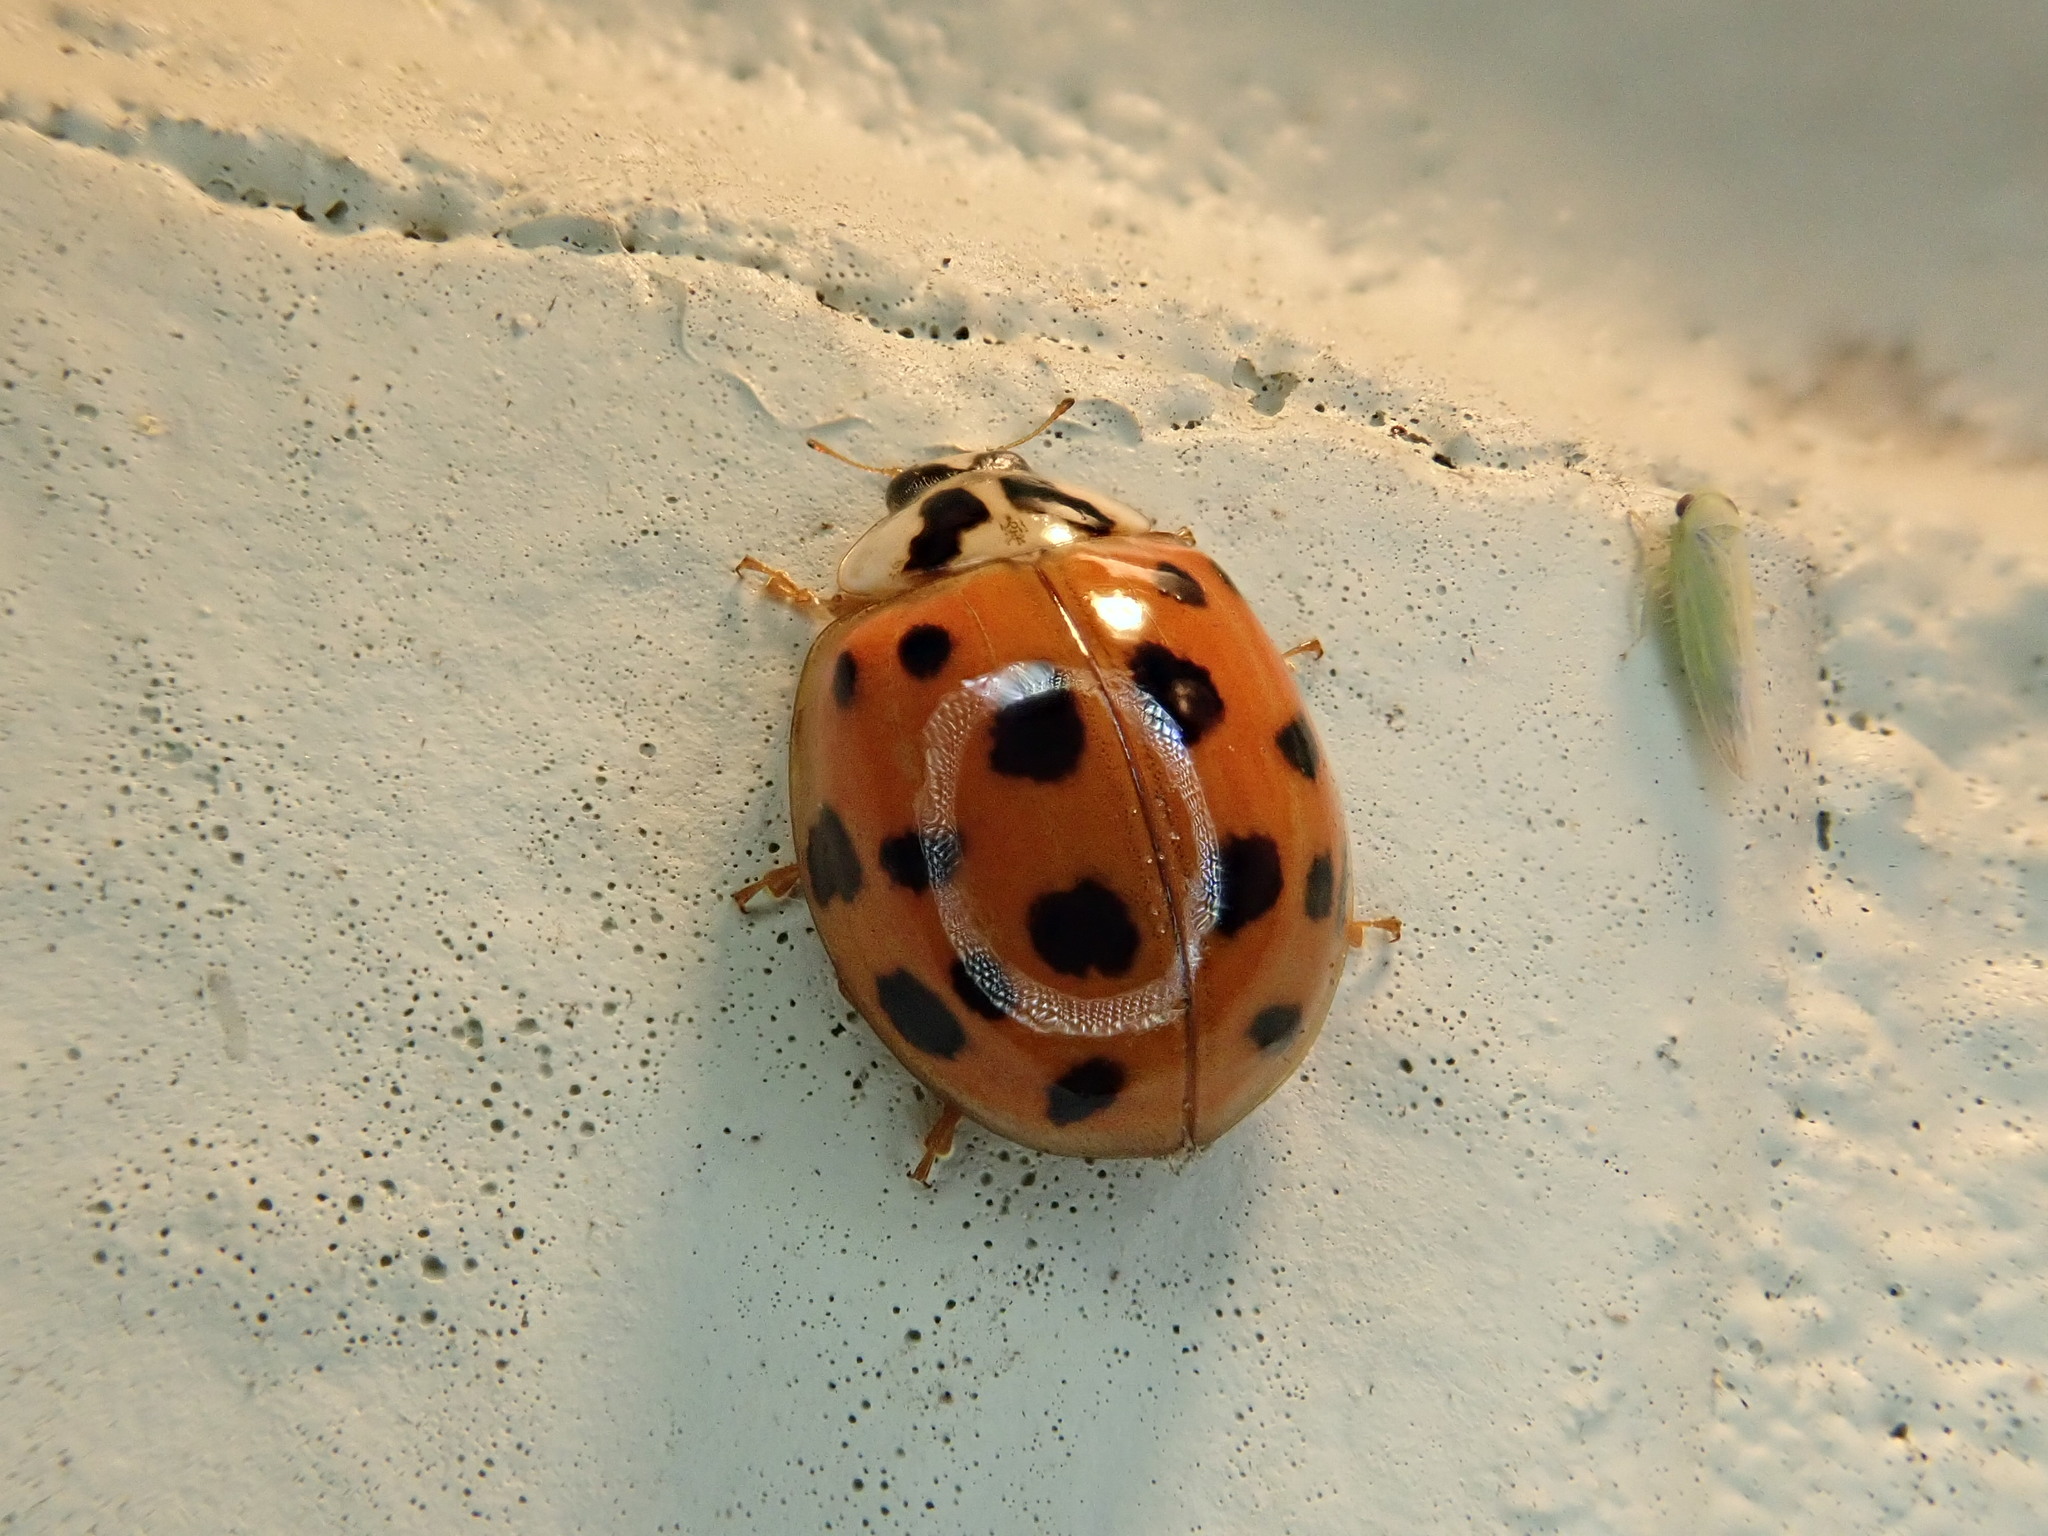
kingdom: Animalia
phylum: Arthropoda
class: Insecta
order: Coleoptera
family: Coccinellidae
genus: Harmonia
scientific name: Harmonia axyridis
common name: Harlequin ladybird
